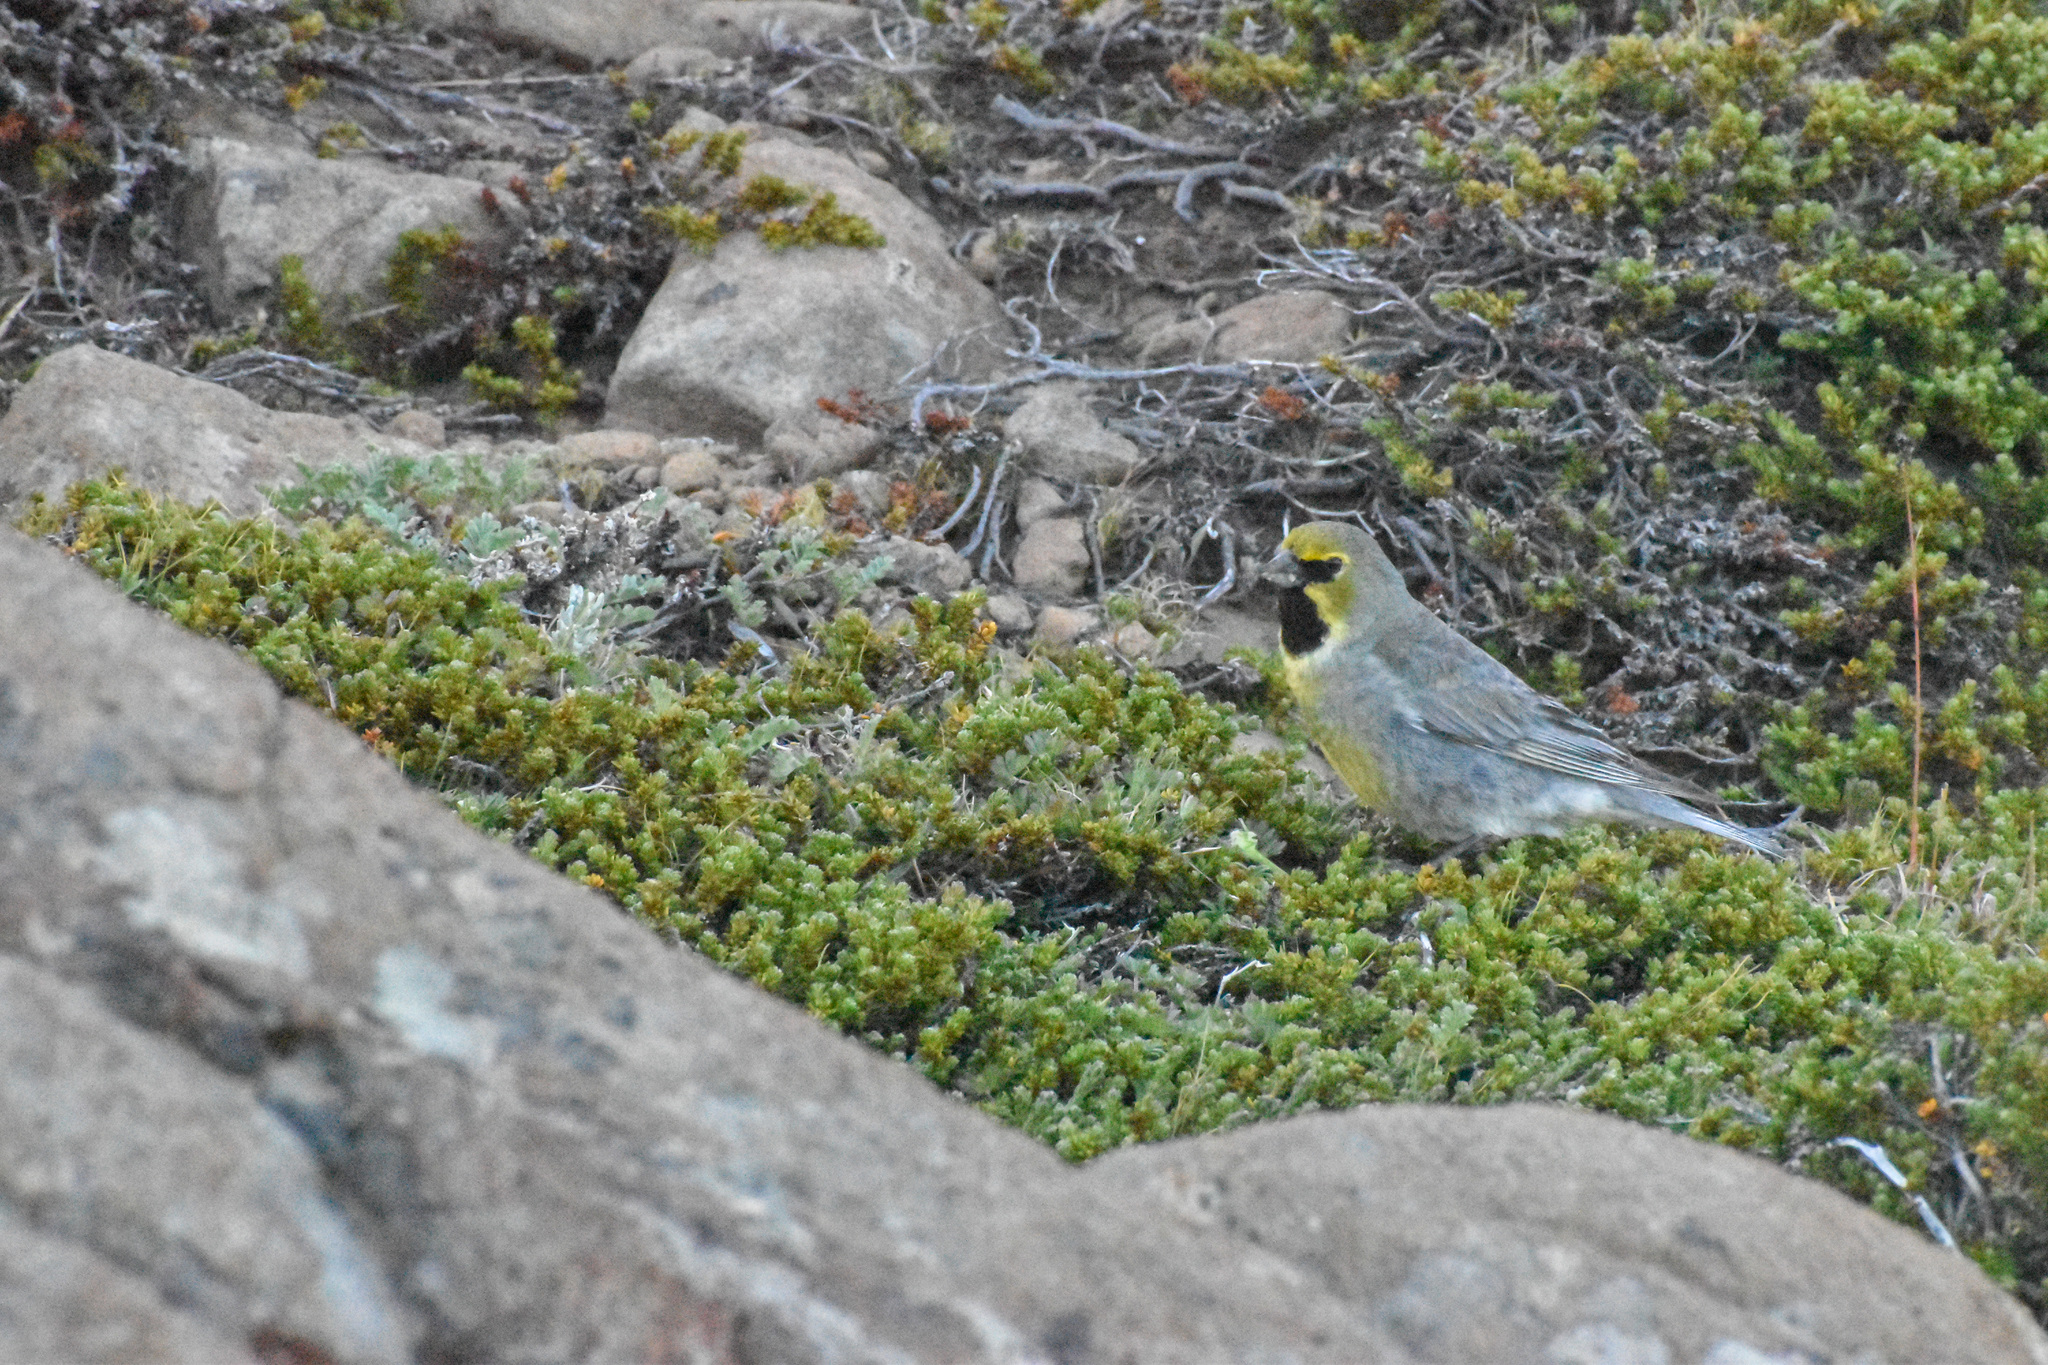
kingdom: Animalia
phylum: Chordata
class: Aves
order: Passeriformes
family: Thraupidae
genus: Melanodera
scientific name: Melanodera xanthogramma
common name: Yellow-bridled finch
